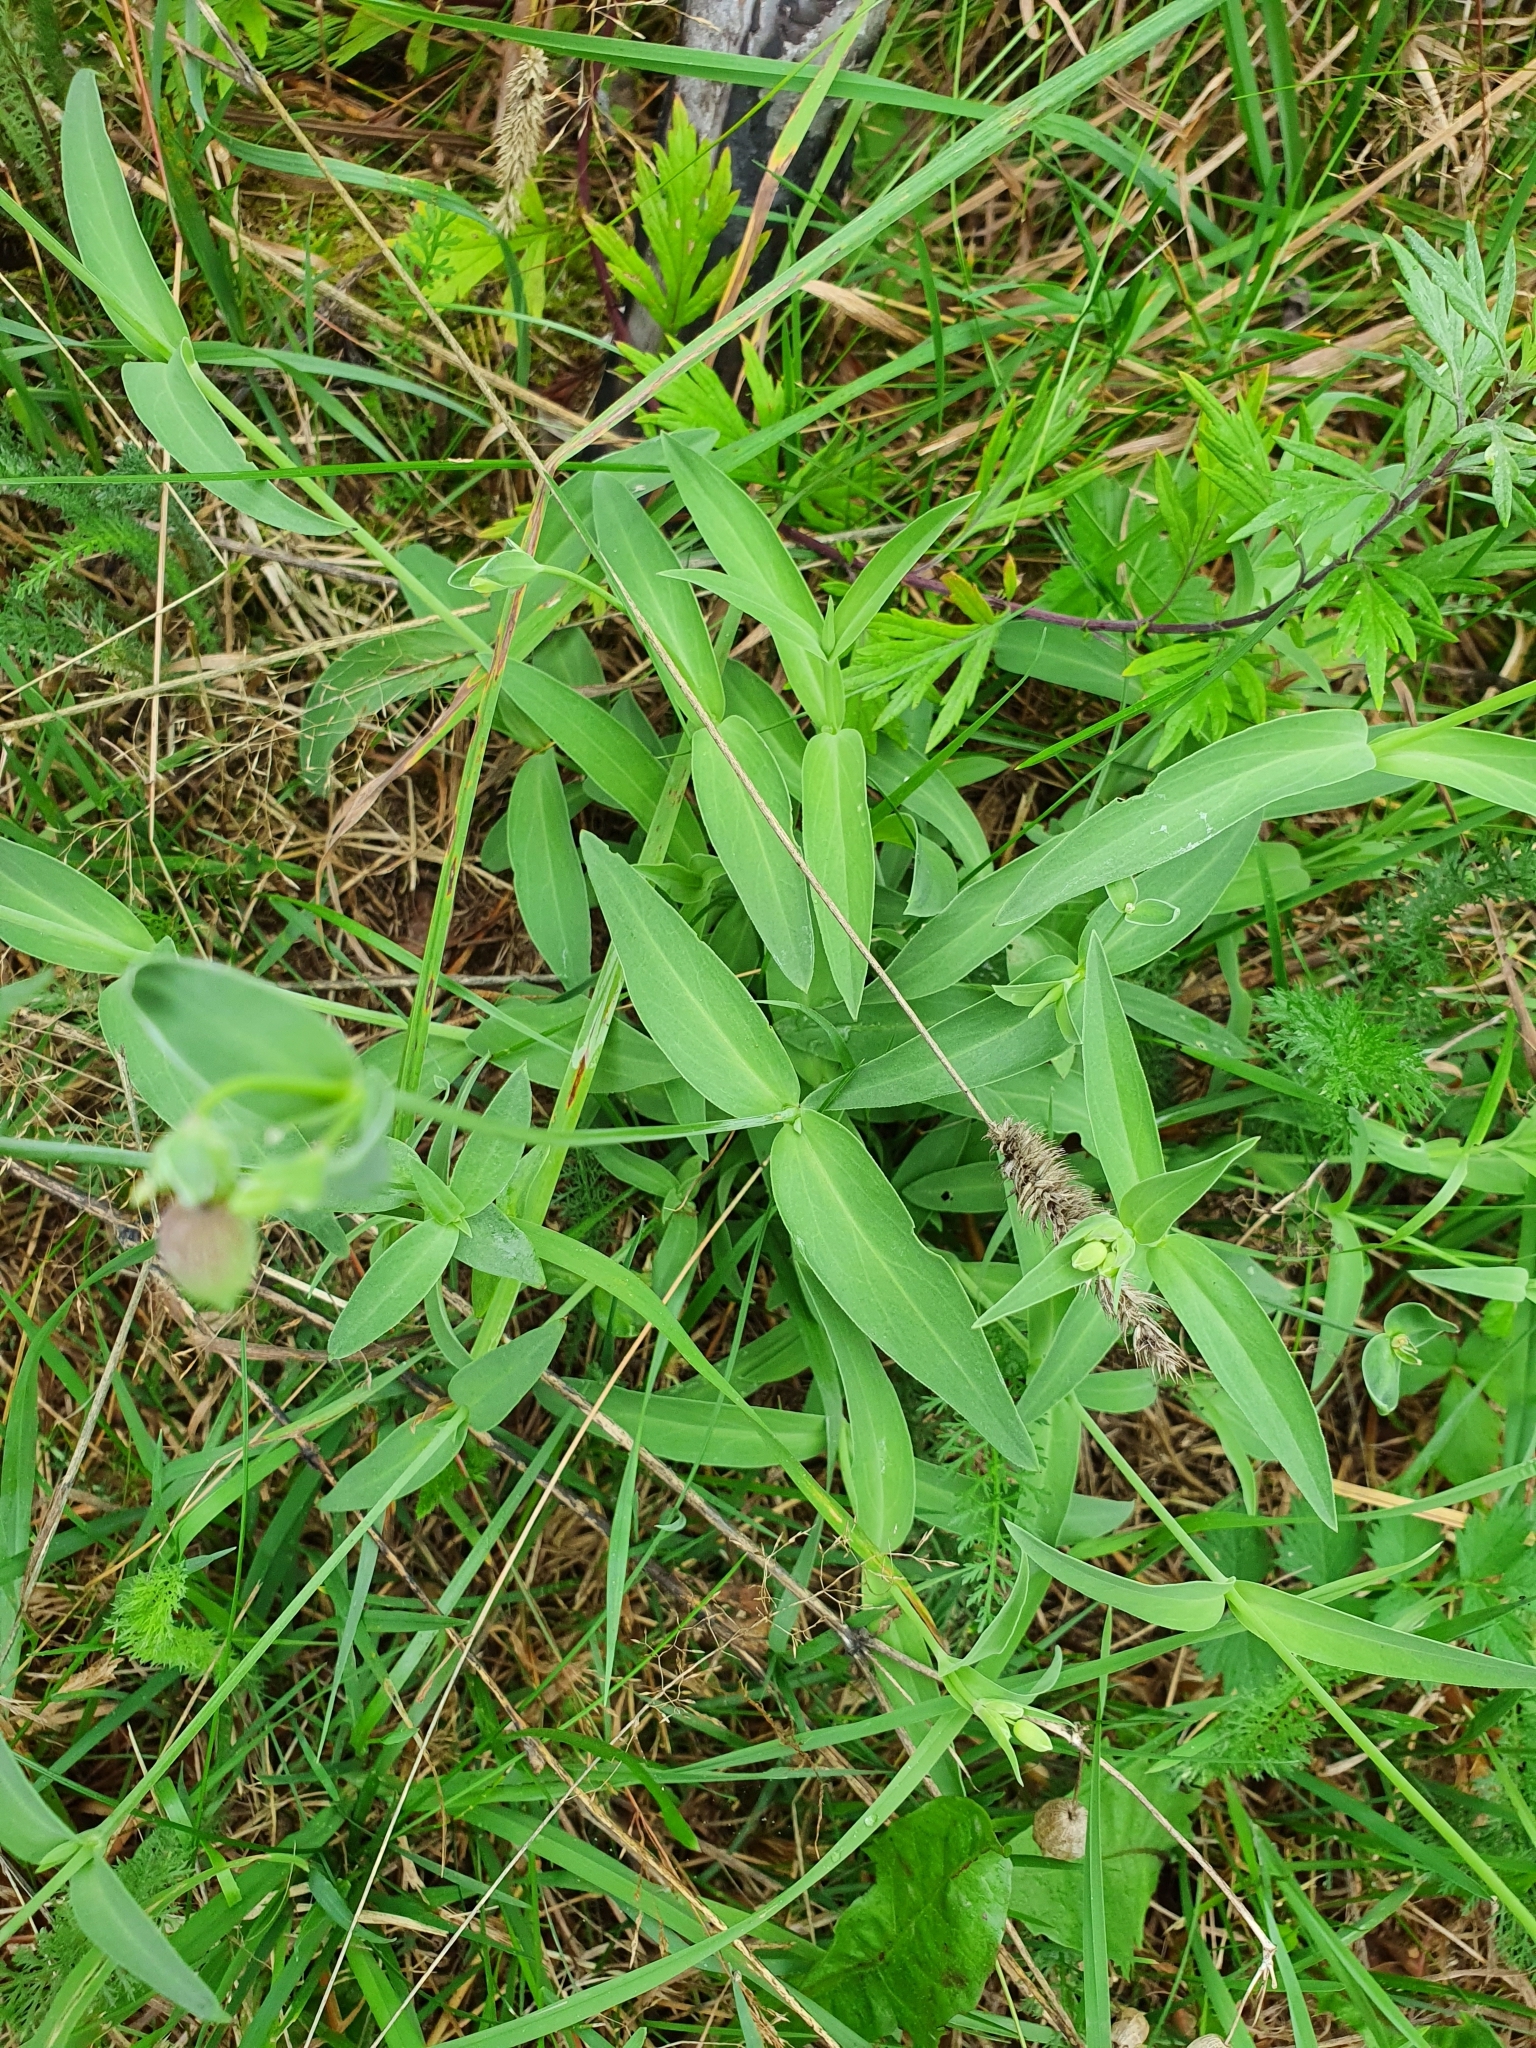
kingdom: Plantae
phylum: Tracheophyta
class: Magnoliopsida
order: Caryophyllales
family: Caryophyllaceae
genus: Silene
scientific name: Silene vulgaris
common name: Bladder campion
